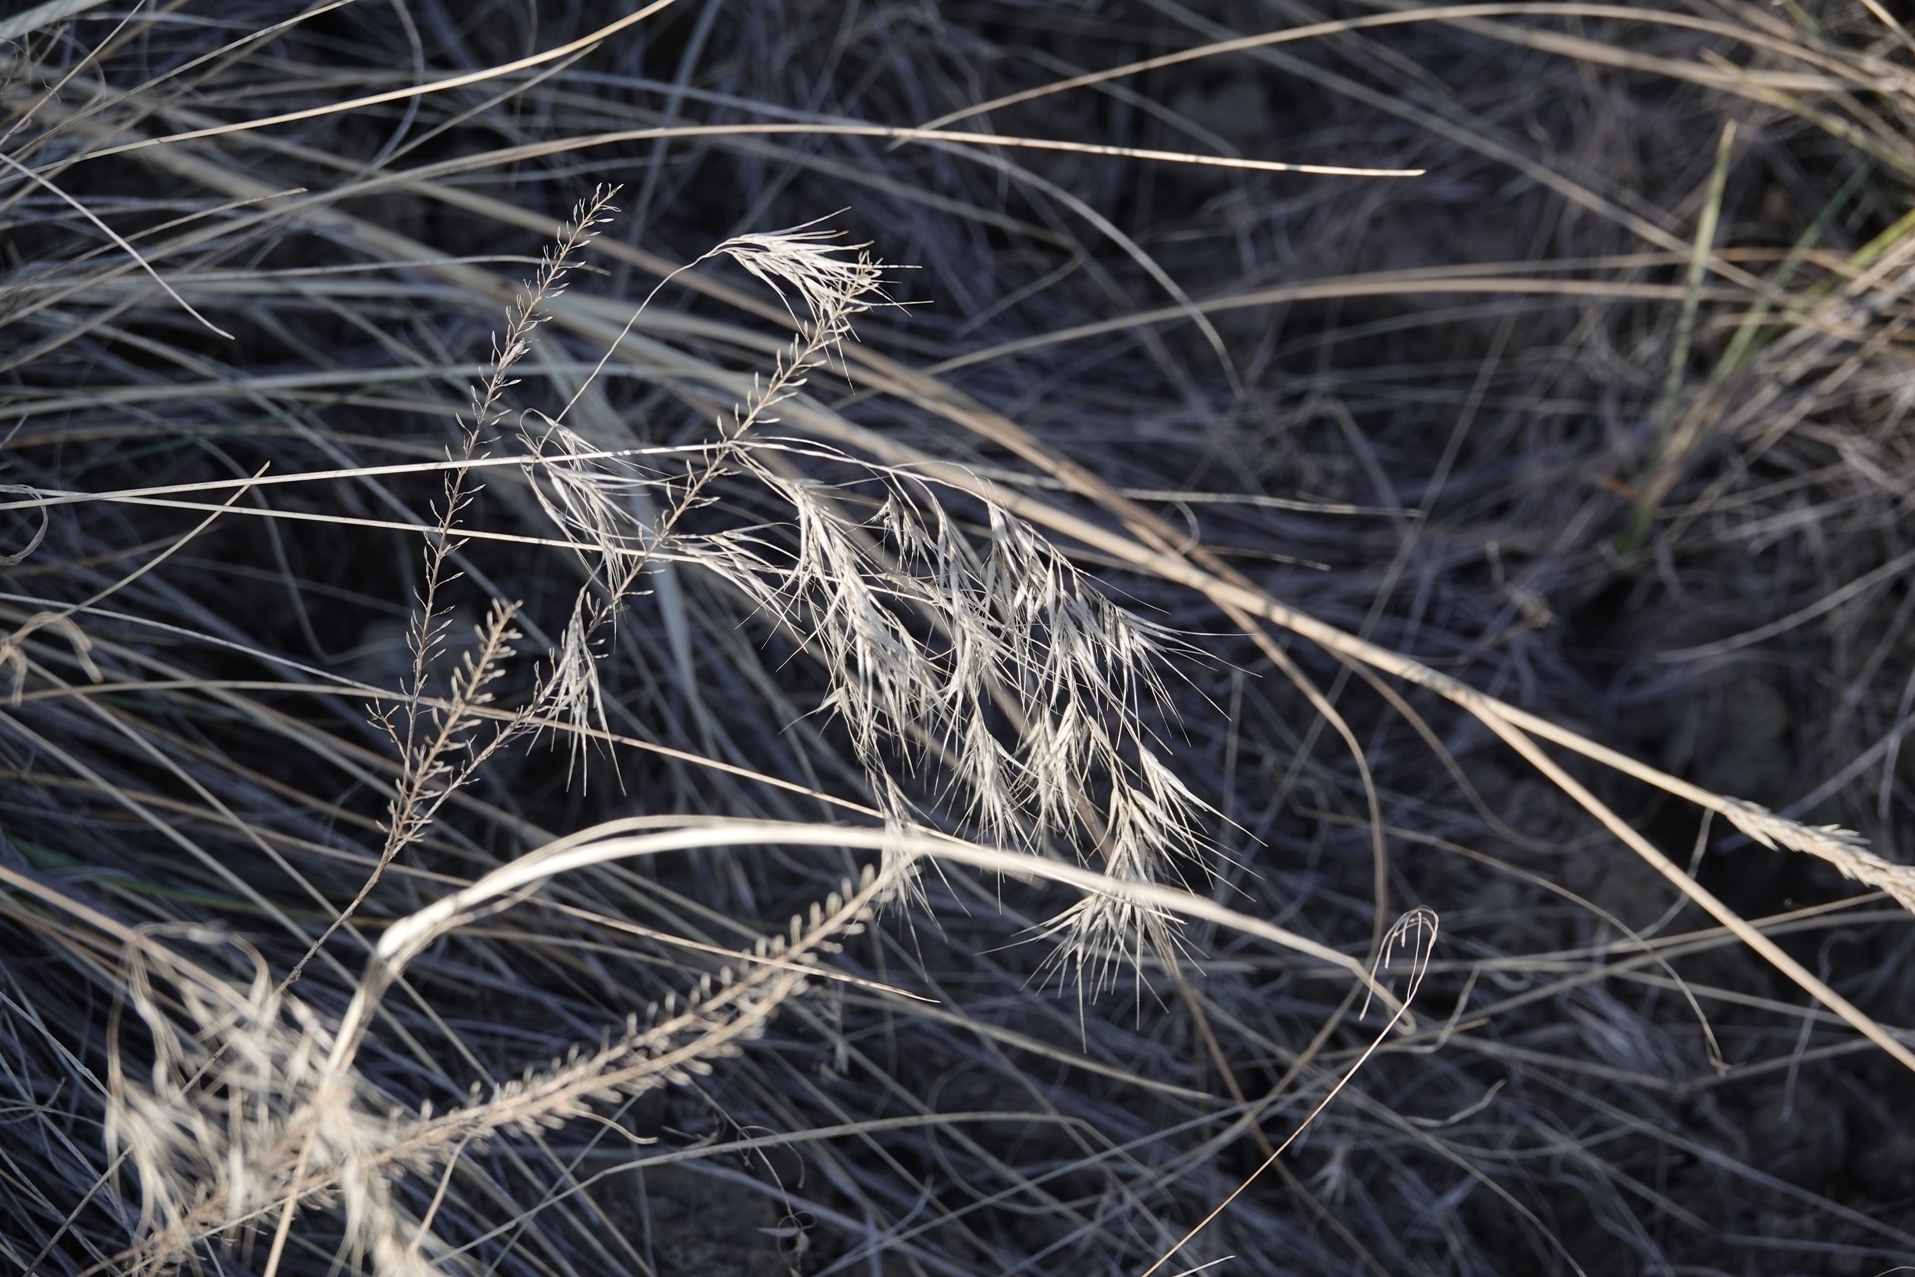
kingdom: Plantae
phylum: Tracheophyta
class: Liliopsida
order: Poales
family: Poaceae
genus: Bromus
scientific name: Bromus tectorum
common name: Cheatgrass
